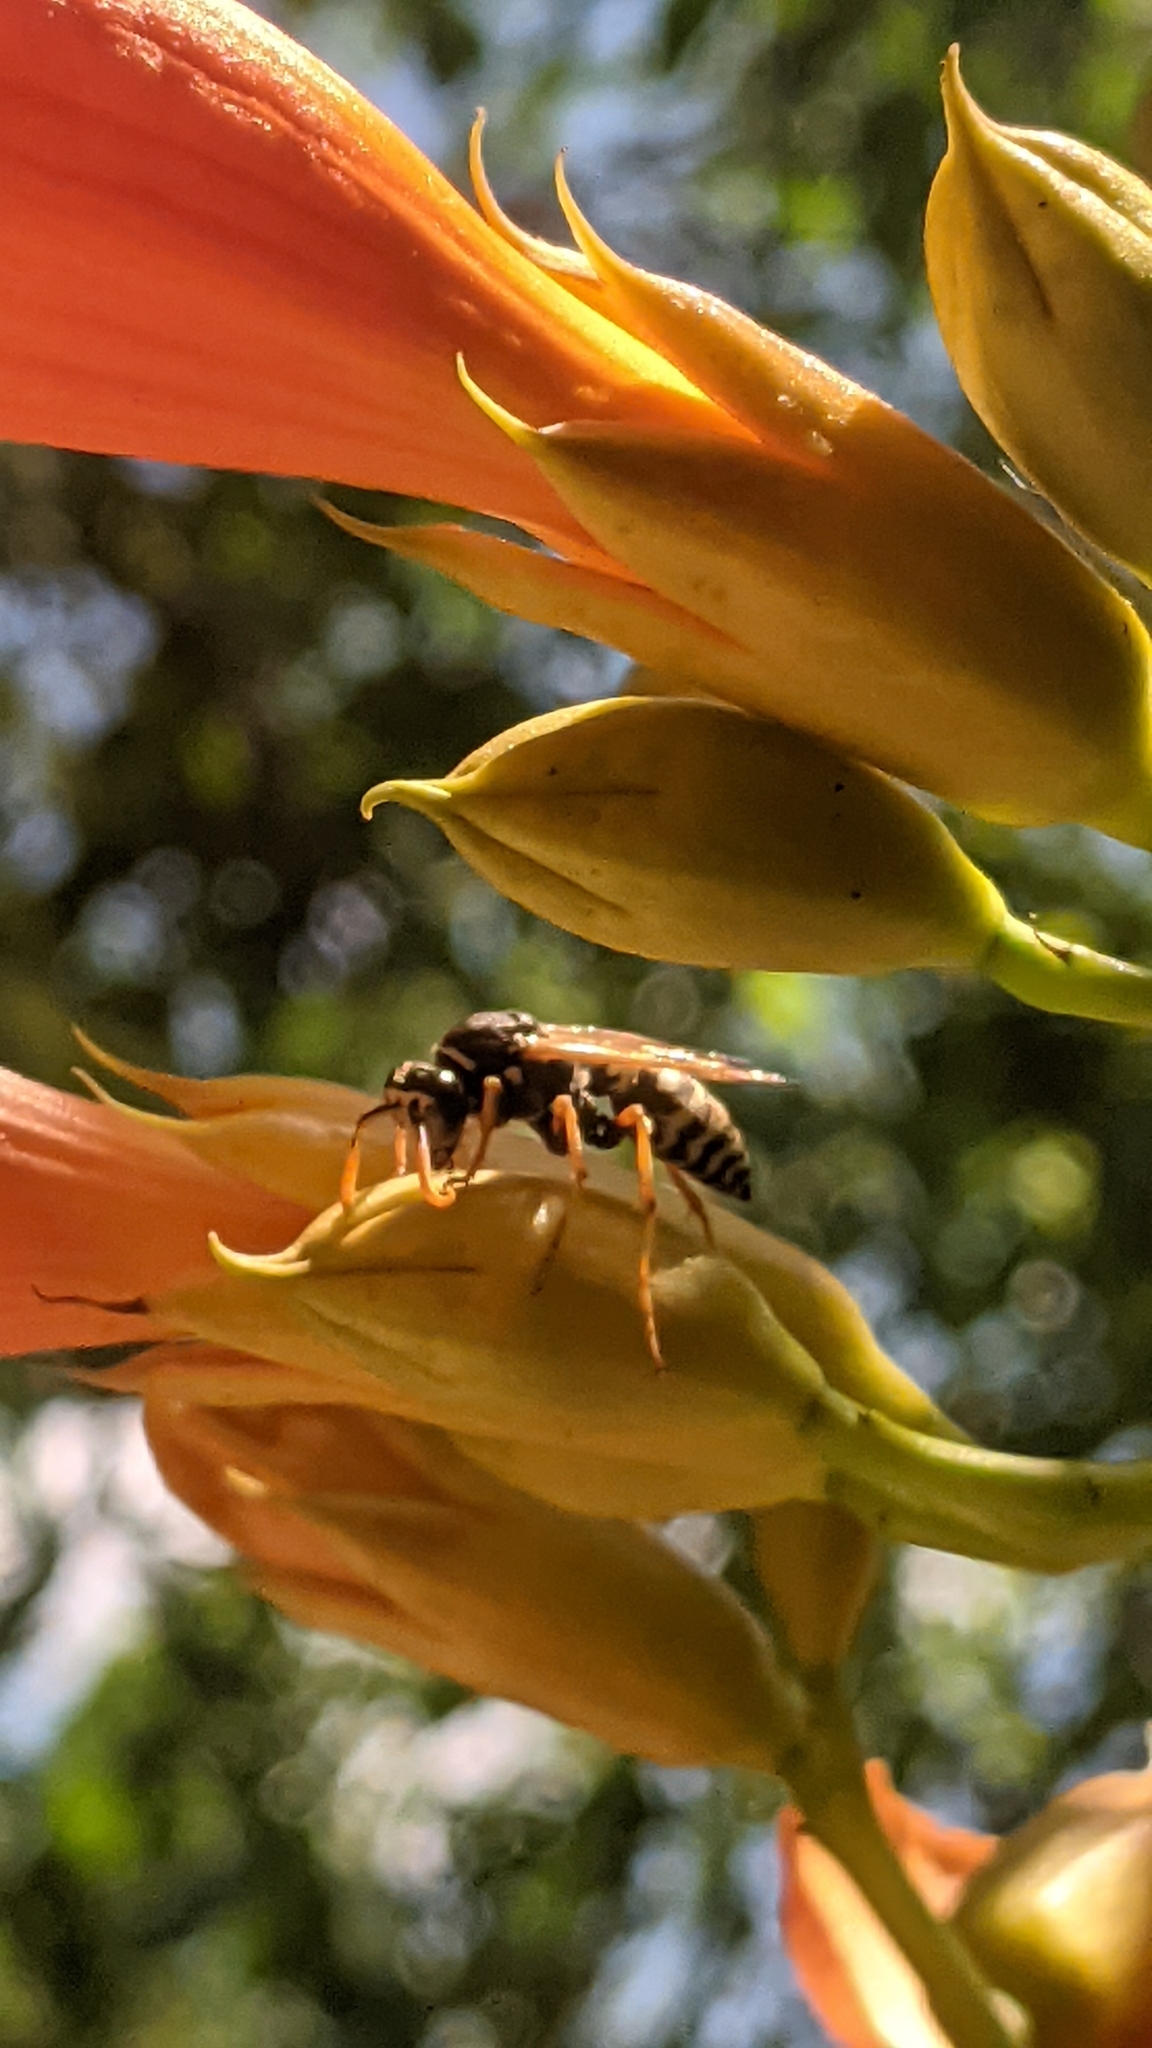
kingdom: Animalia
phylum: Arthropoda
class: Insecta
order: Hymenoptera
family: Eumenidae
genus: Polistes
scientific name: Polistes dominula
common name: Paper wasp
